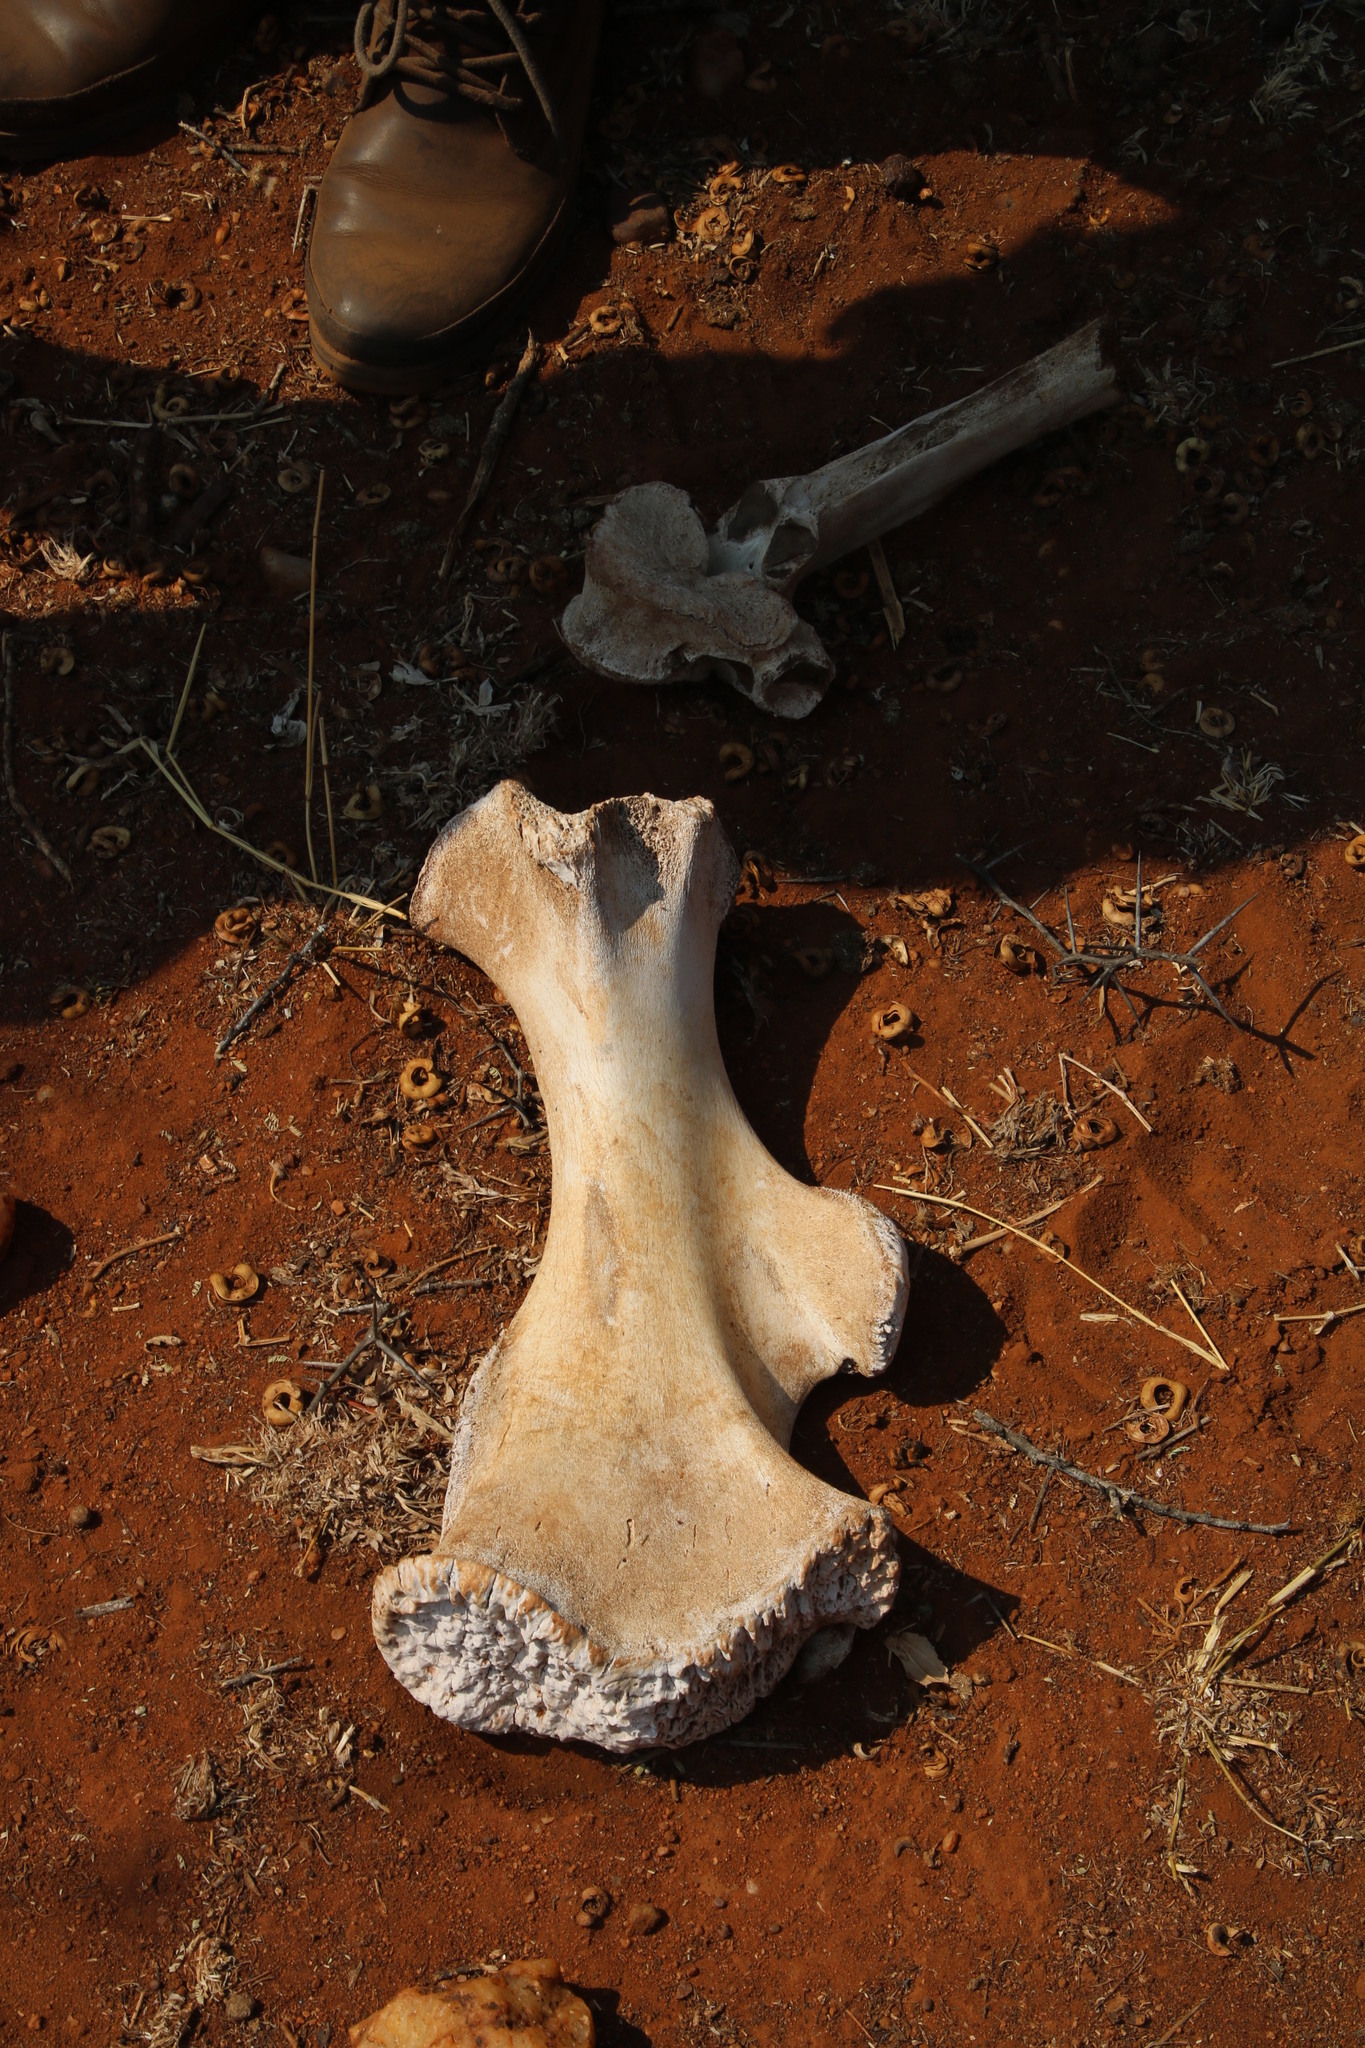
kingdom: Animalia
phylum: Chordata
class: Mammalia
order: Perissodactyla
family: Rhinocerotidae
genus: Ceratotherium
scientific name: Ceratotherium simum
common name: White rhinoceros
